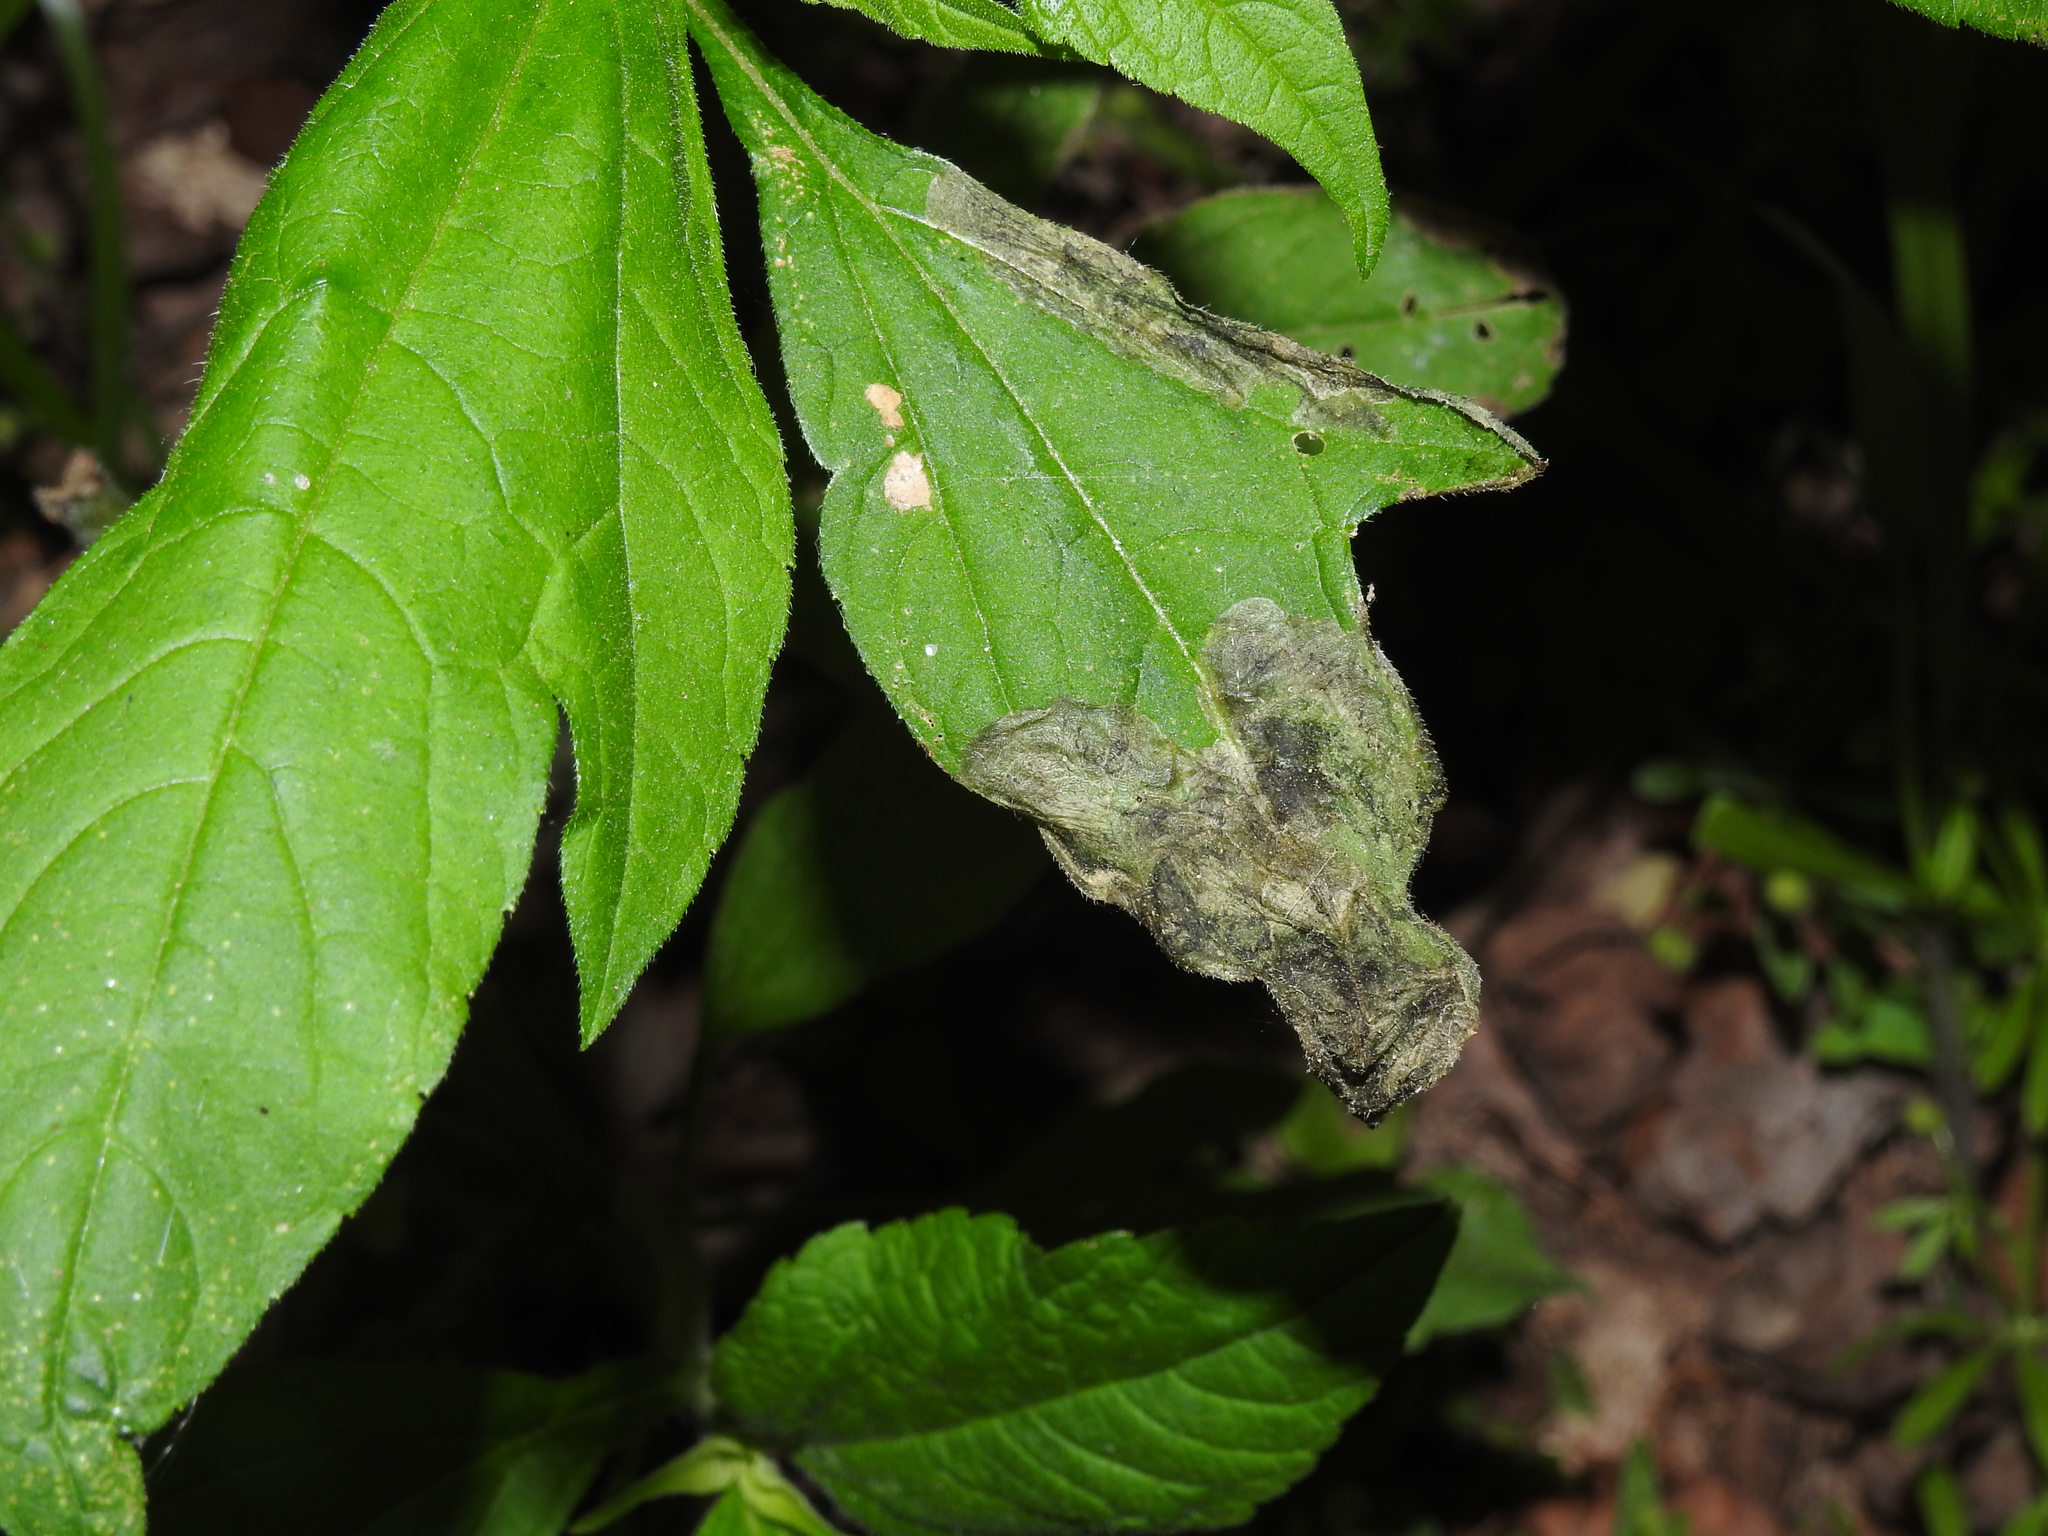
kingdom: Animalia
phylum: Arthropoda
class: Insecta
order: Diptera
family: Agromyzidae
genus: Agromyza
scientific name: Agromyza ambrosivora
